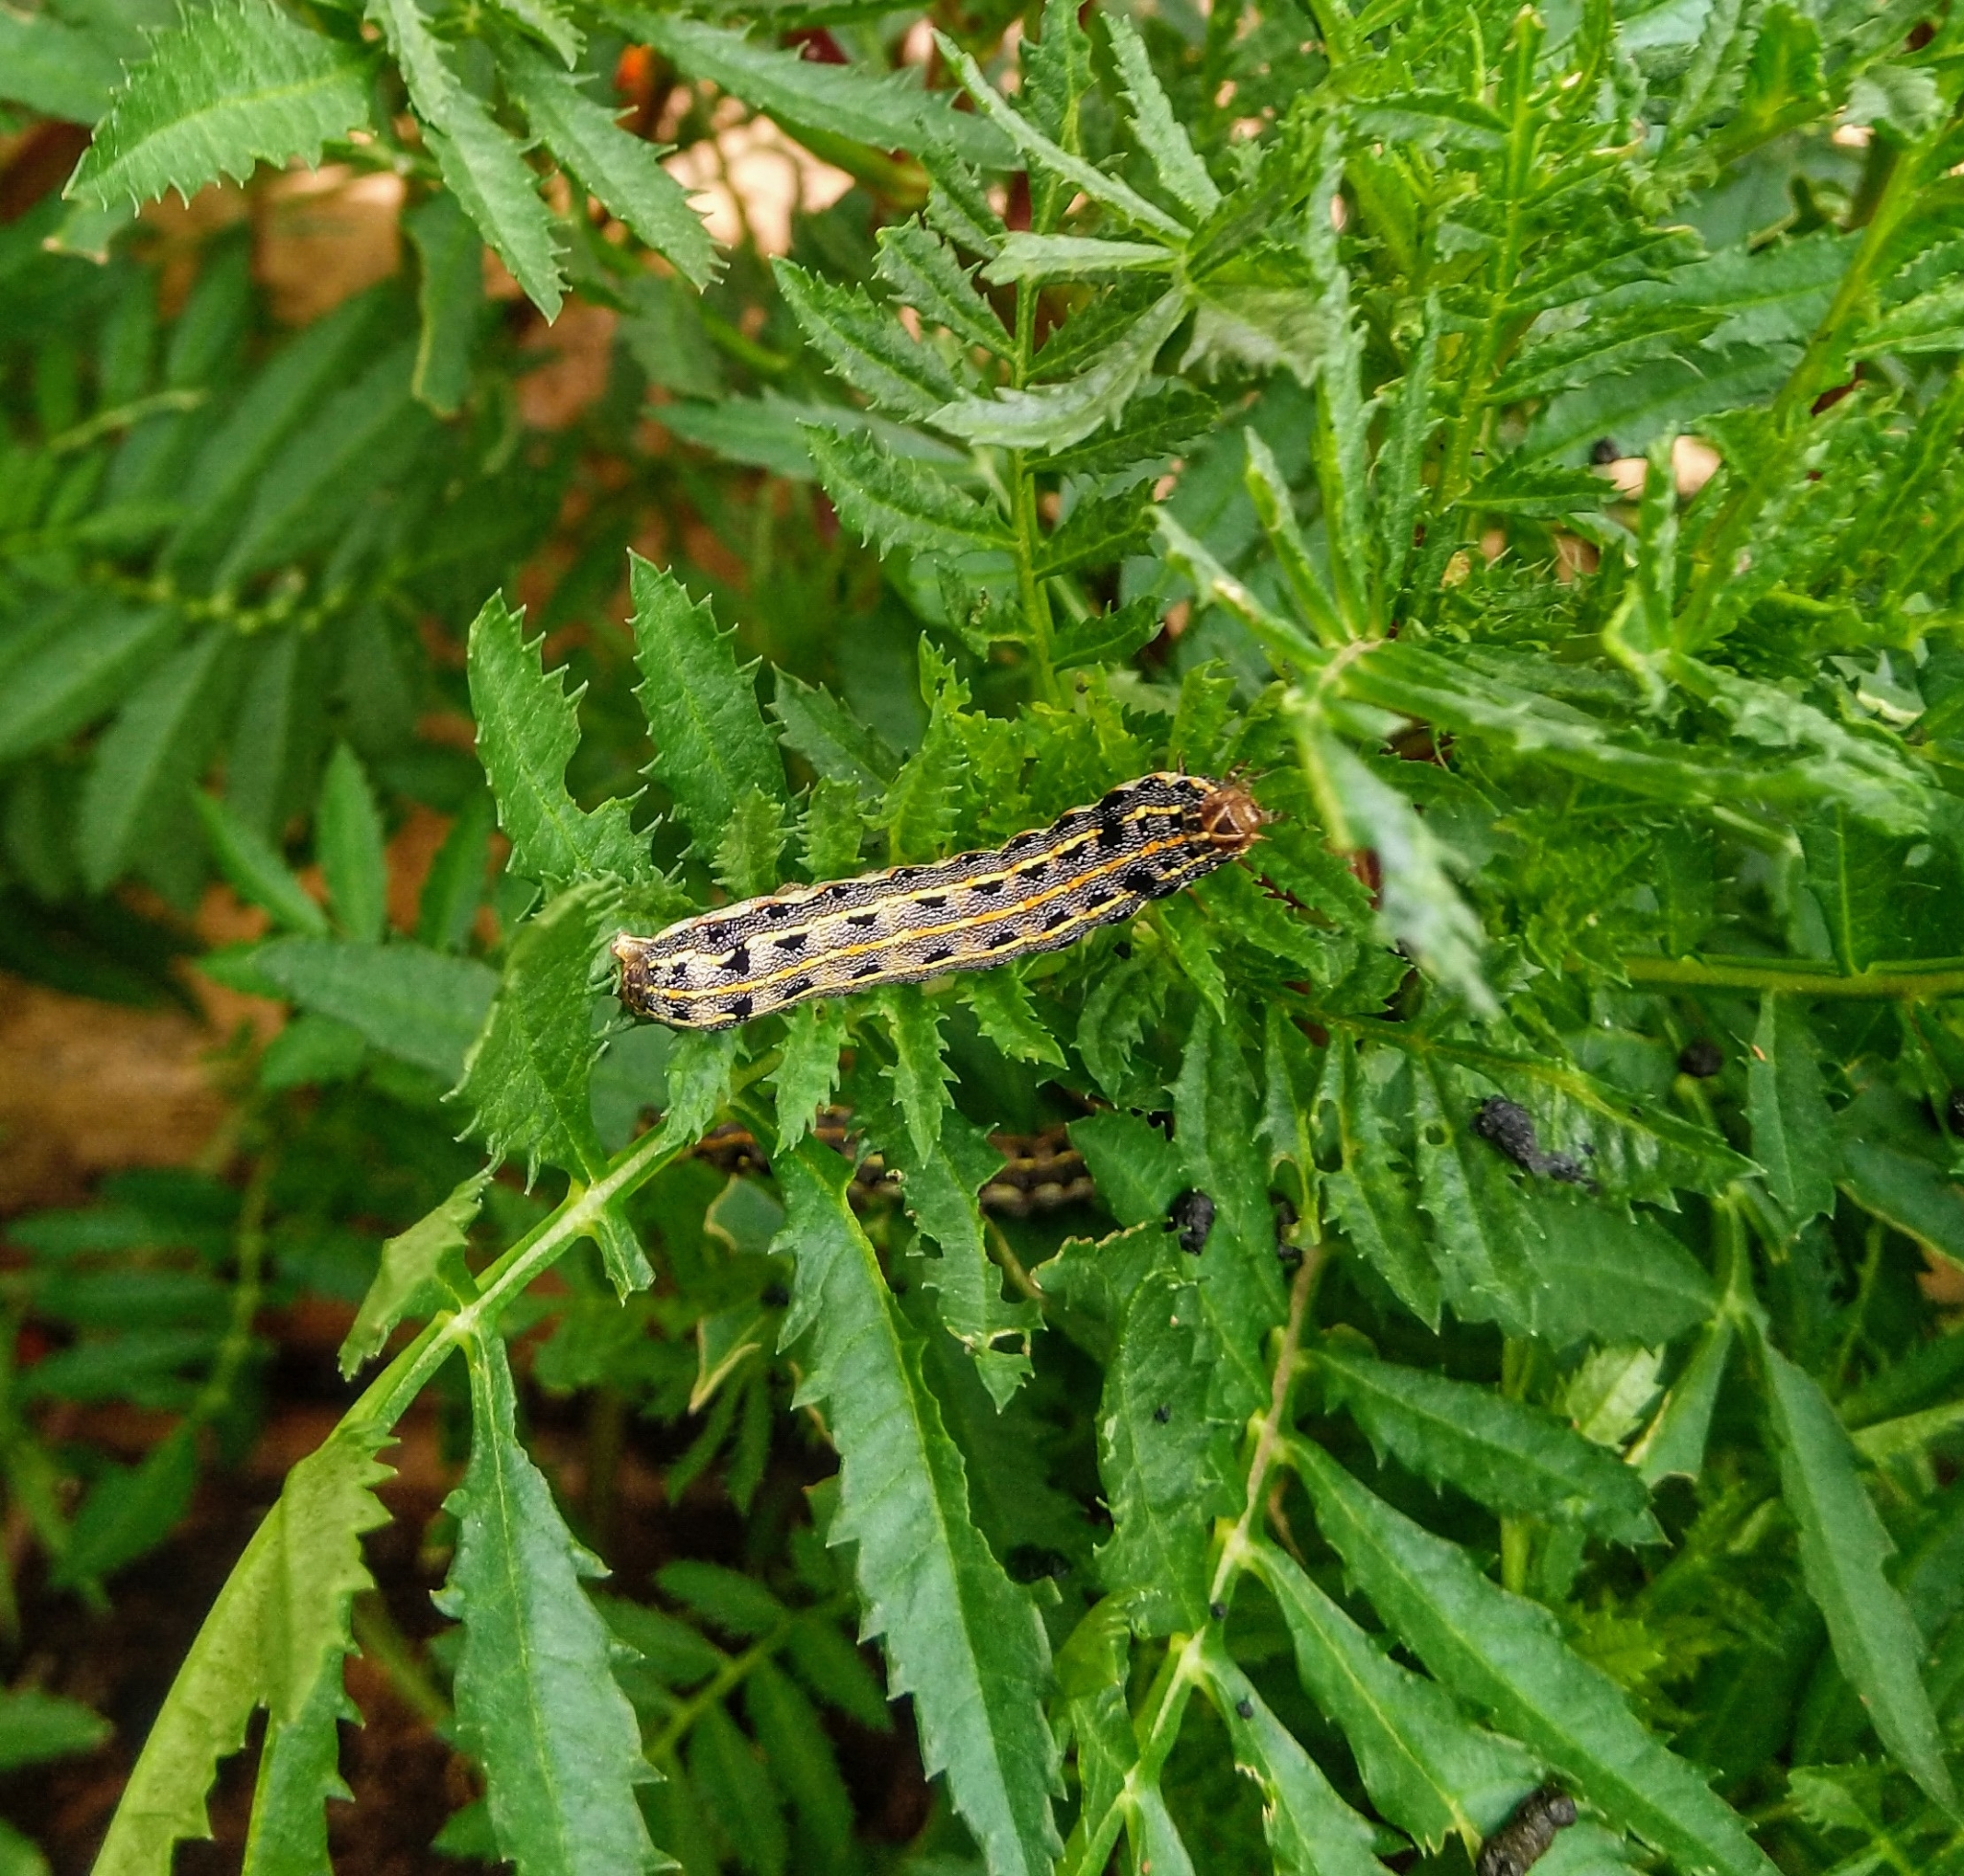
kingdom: Animalia
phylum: Arthropoda
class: Insecta
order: Lepidoptera
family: Noctuidae
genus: Spodoptera
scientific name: Spodoptera litura
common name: Asian cotton leafworm
